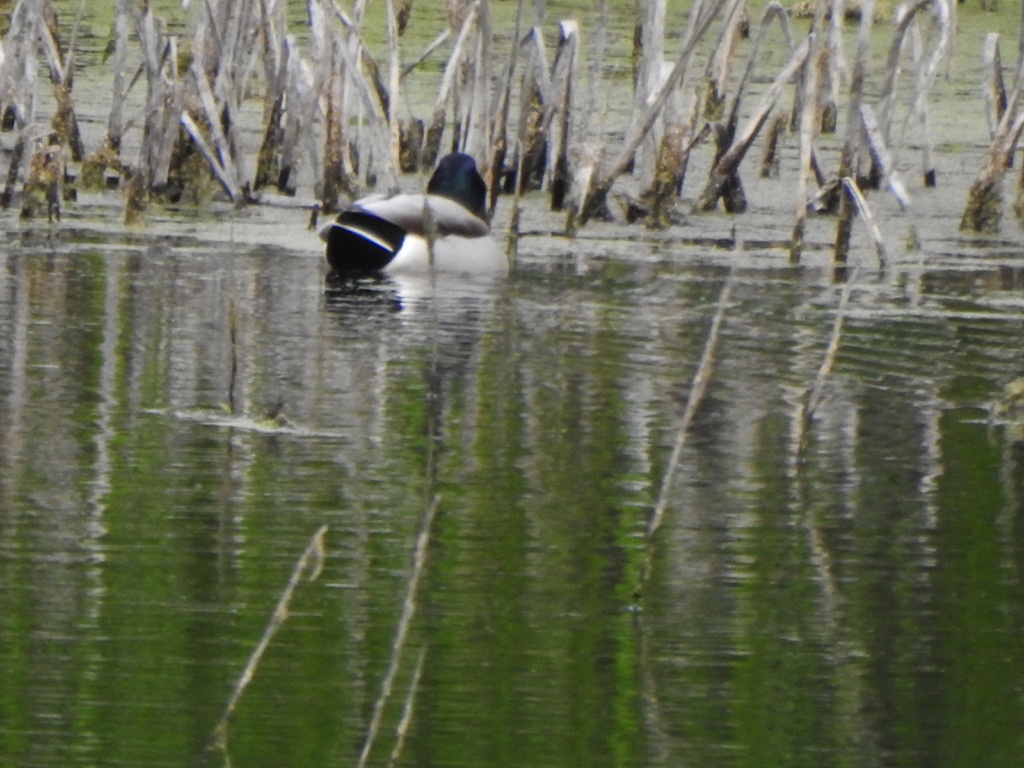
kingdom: Animalia
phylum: Chordata
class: Aves
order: Anseriformes
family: Anatidae
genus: Anas
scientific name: Anas platyrhynchos
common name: Mallard
